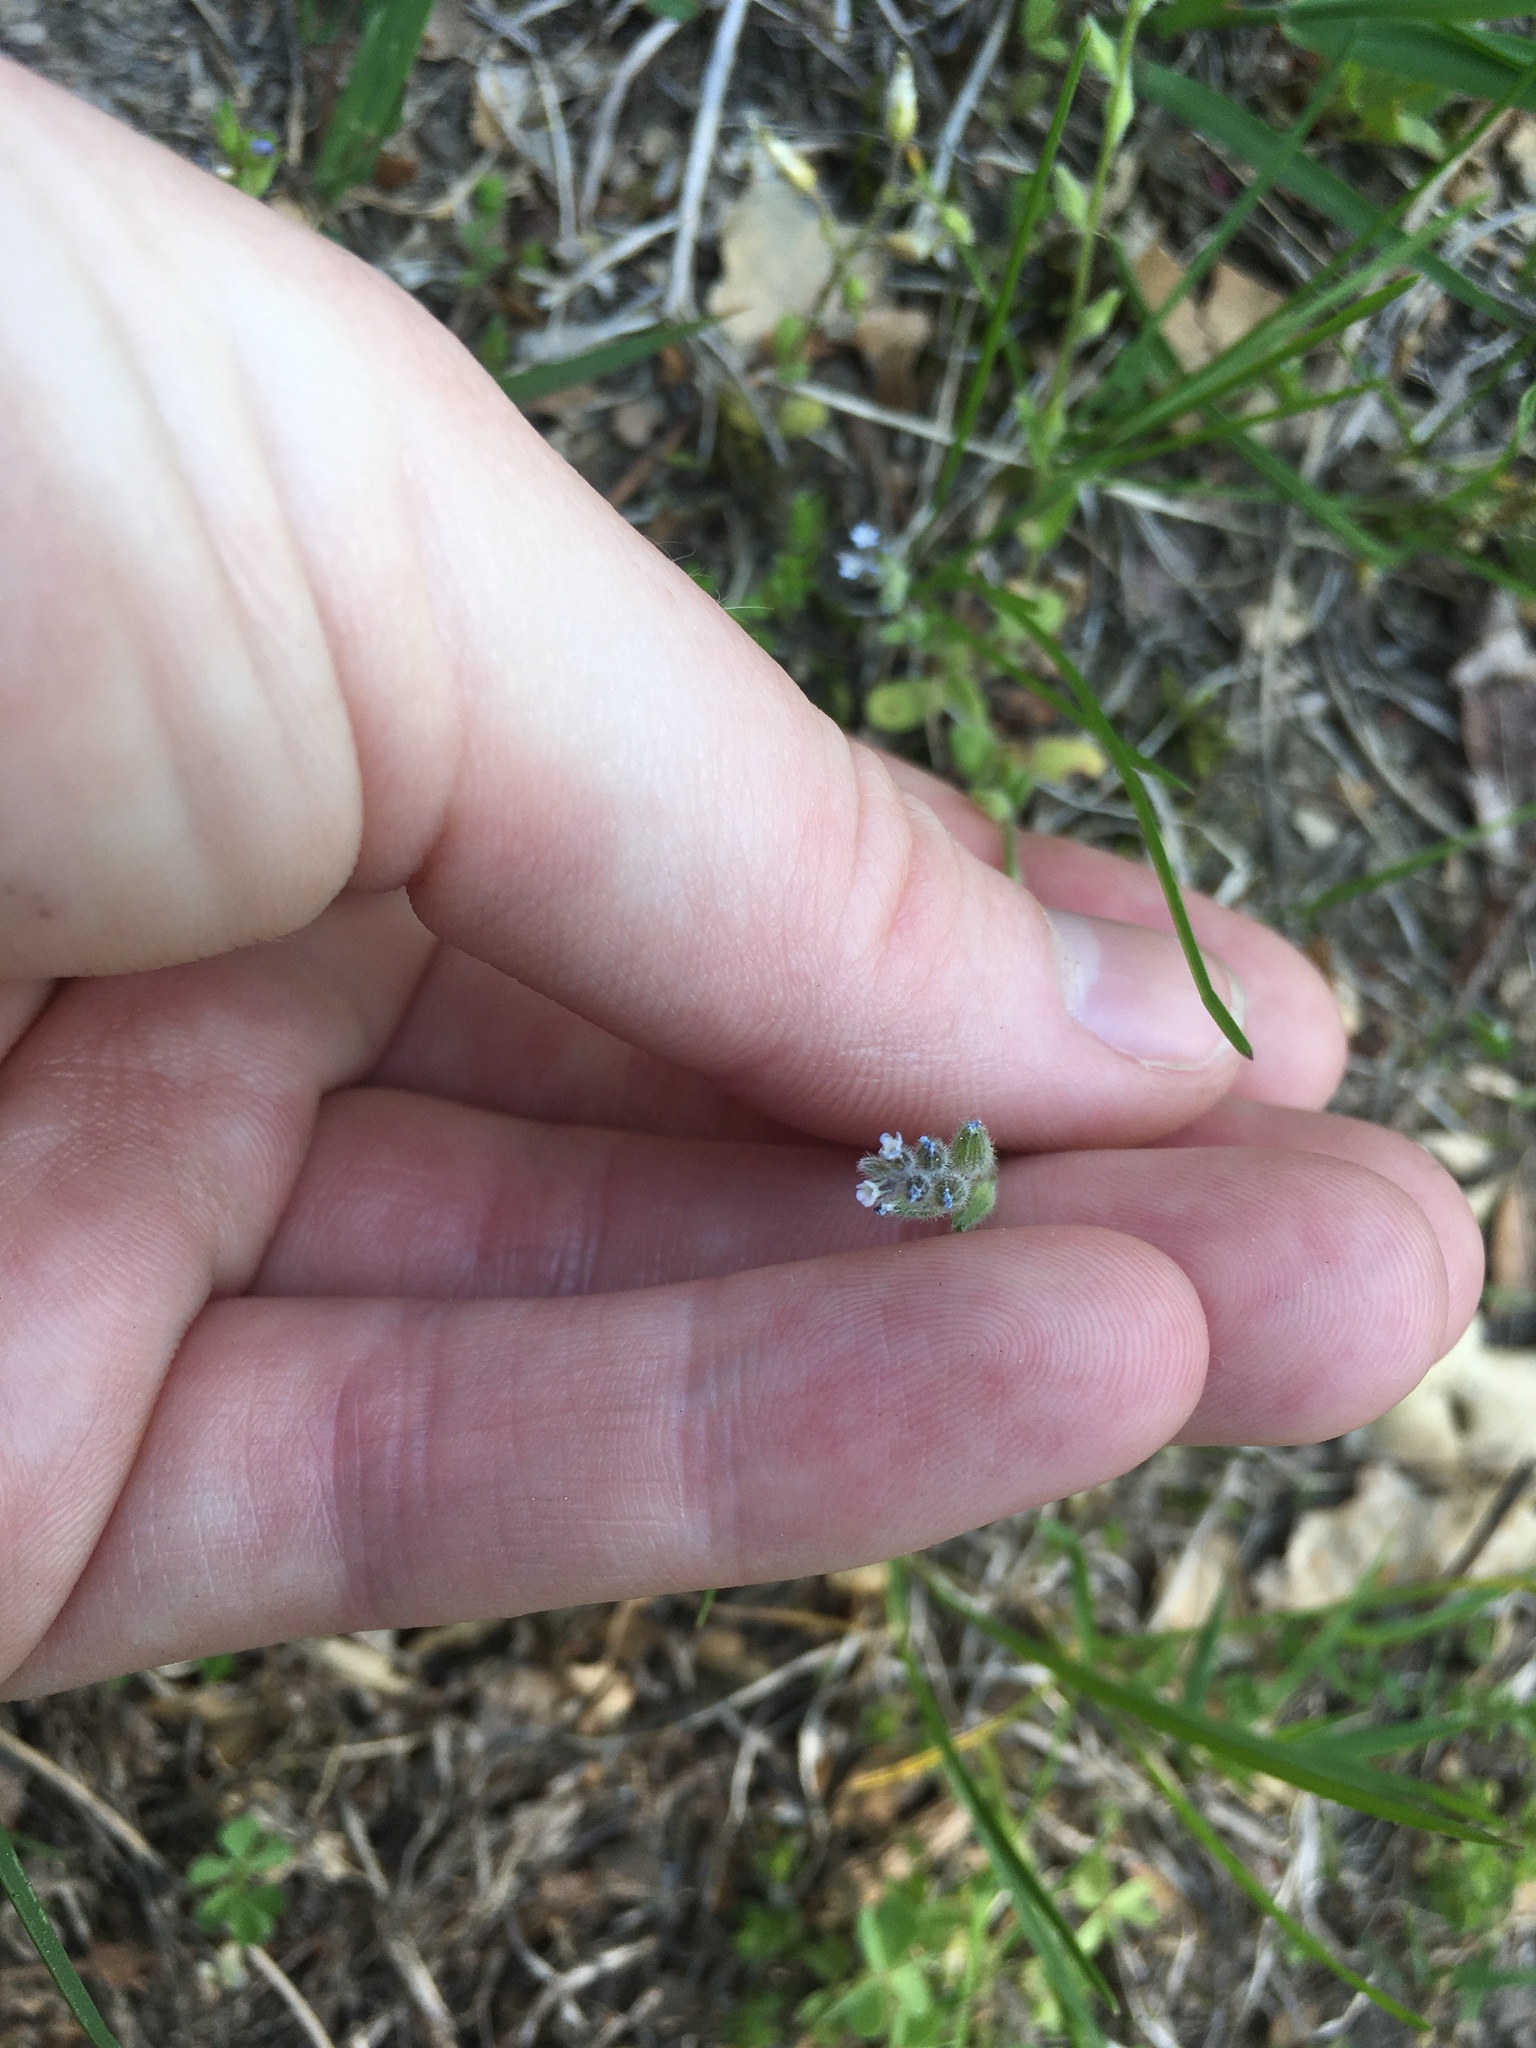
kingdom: Plantae
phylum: Tracheophyta
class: Magnoliopsida
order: Boraginales
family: Boraginaceae
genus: Myosotis
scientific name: Myosotis stricta
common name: Strict forget-me-not
